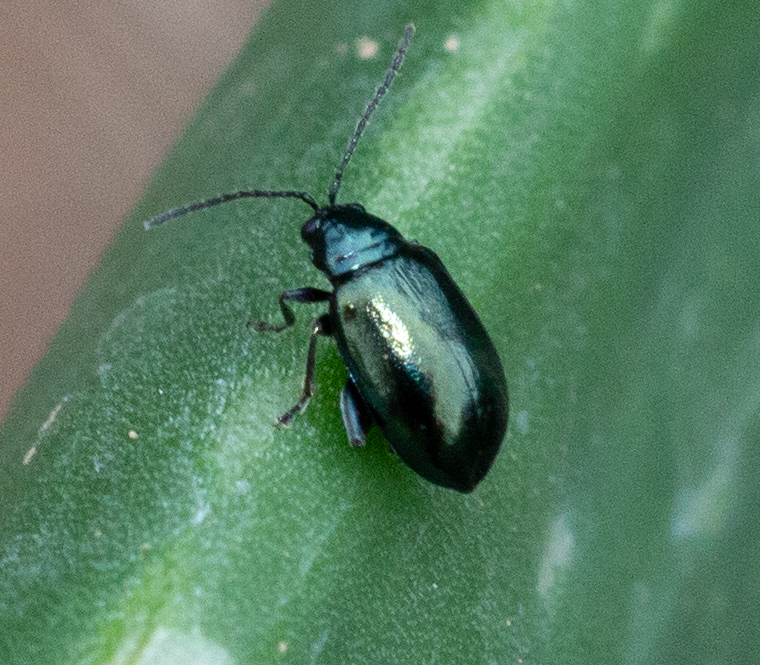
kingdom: Animalia
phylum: Arthropoda
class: Insecta
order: Coleoptera
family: Chrysomelidae
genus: Agelastica
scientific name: Agelastica alni
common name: Alder leaf beetle
